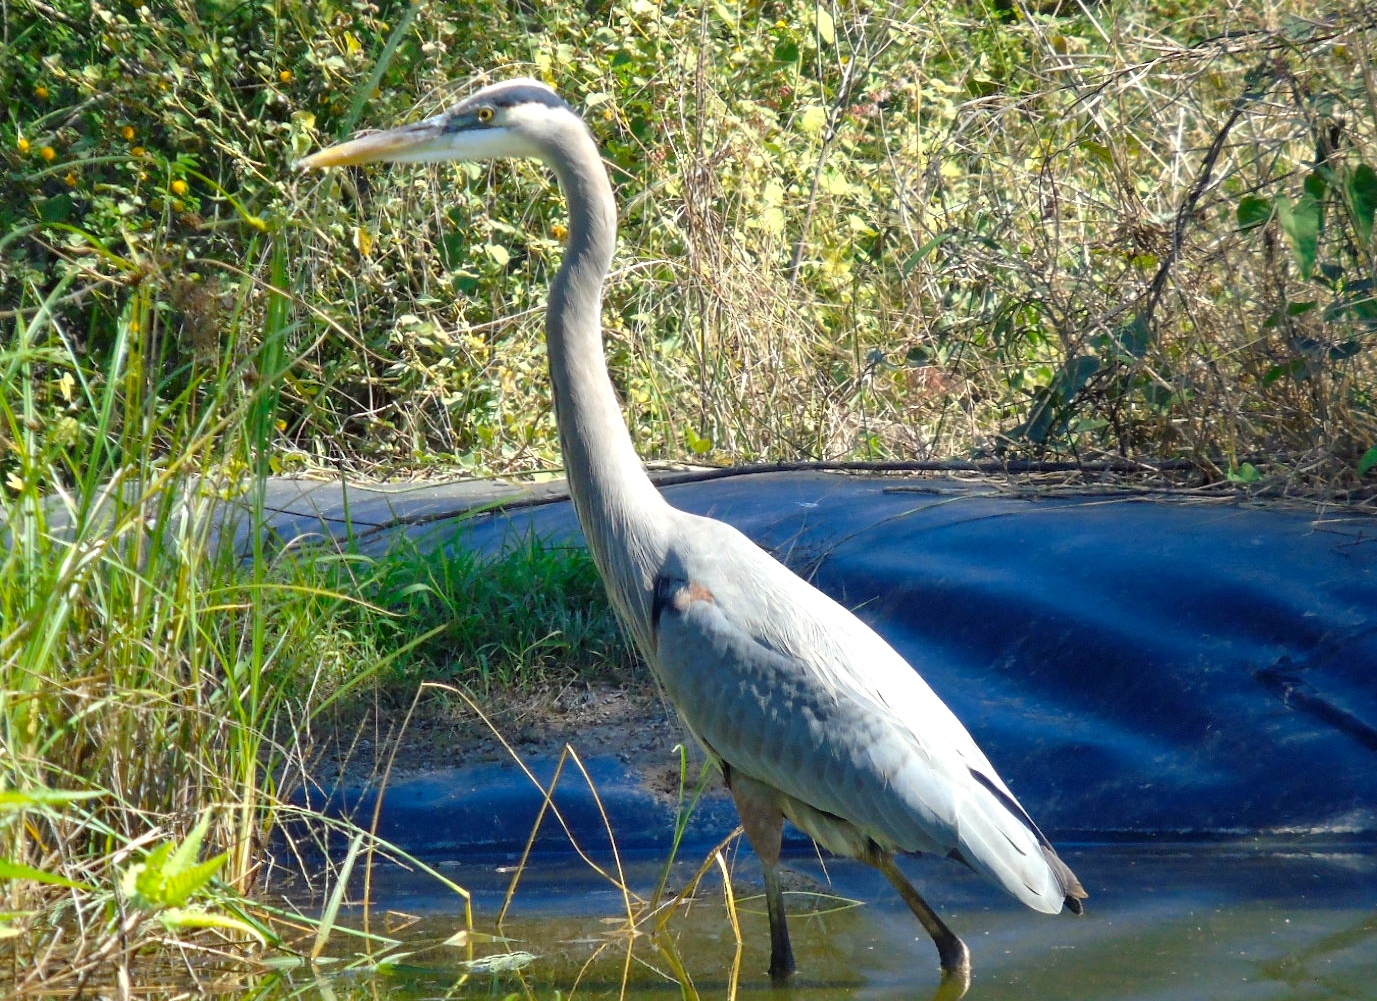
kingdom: Animalia
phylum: Chordata
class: Aves
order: Pelecaniformes
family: Ardeidae
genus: Ardea
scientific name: Ardea herodias
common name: Great blue heron
